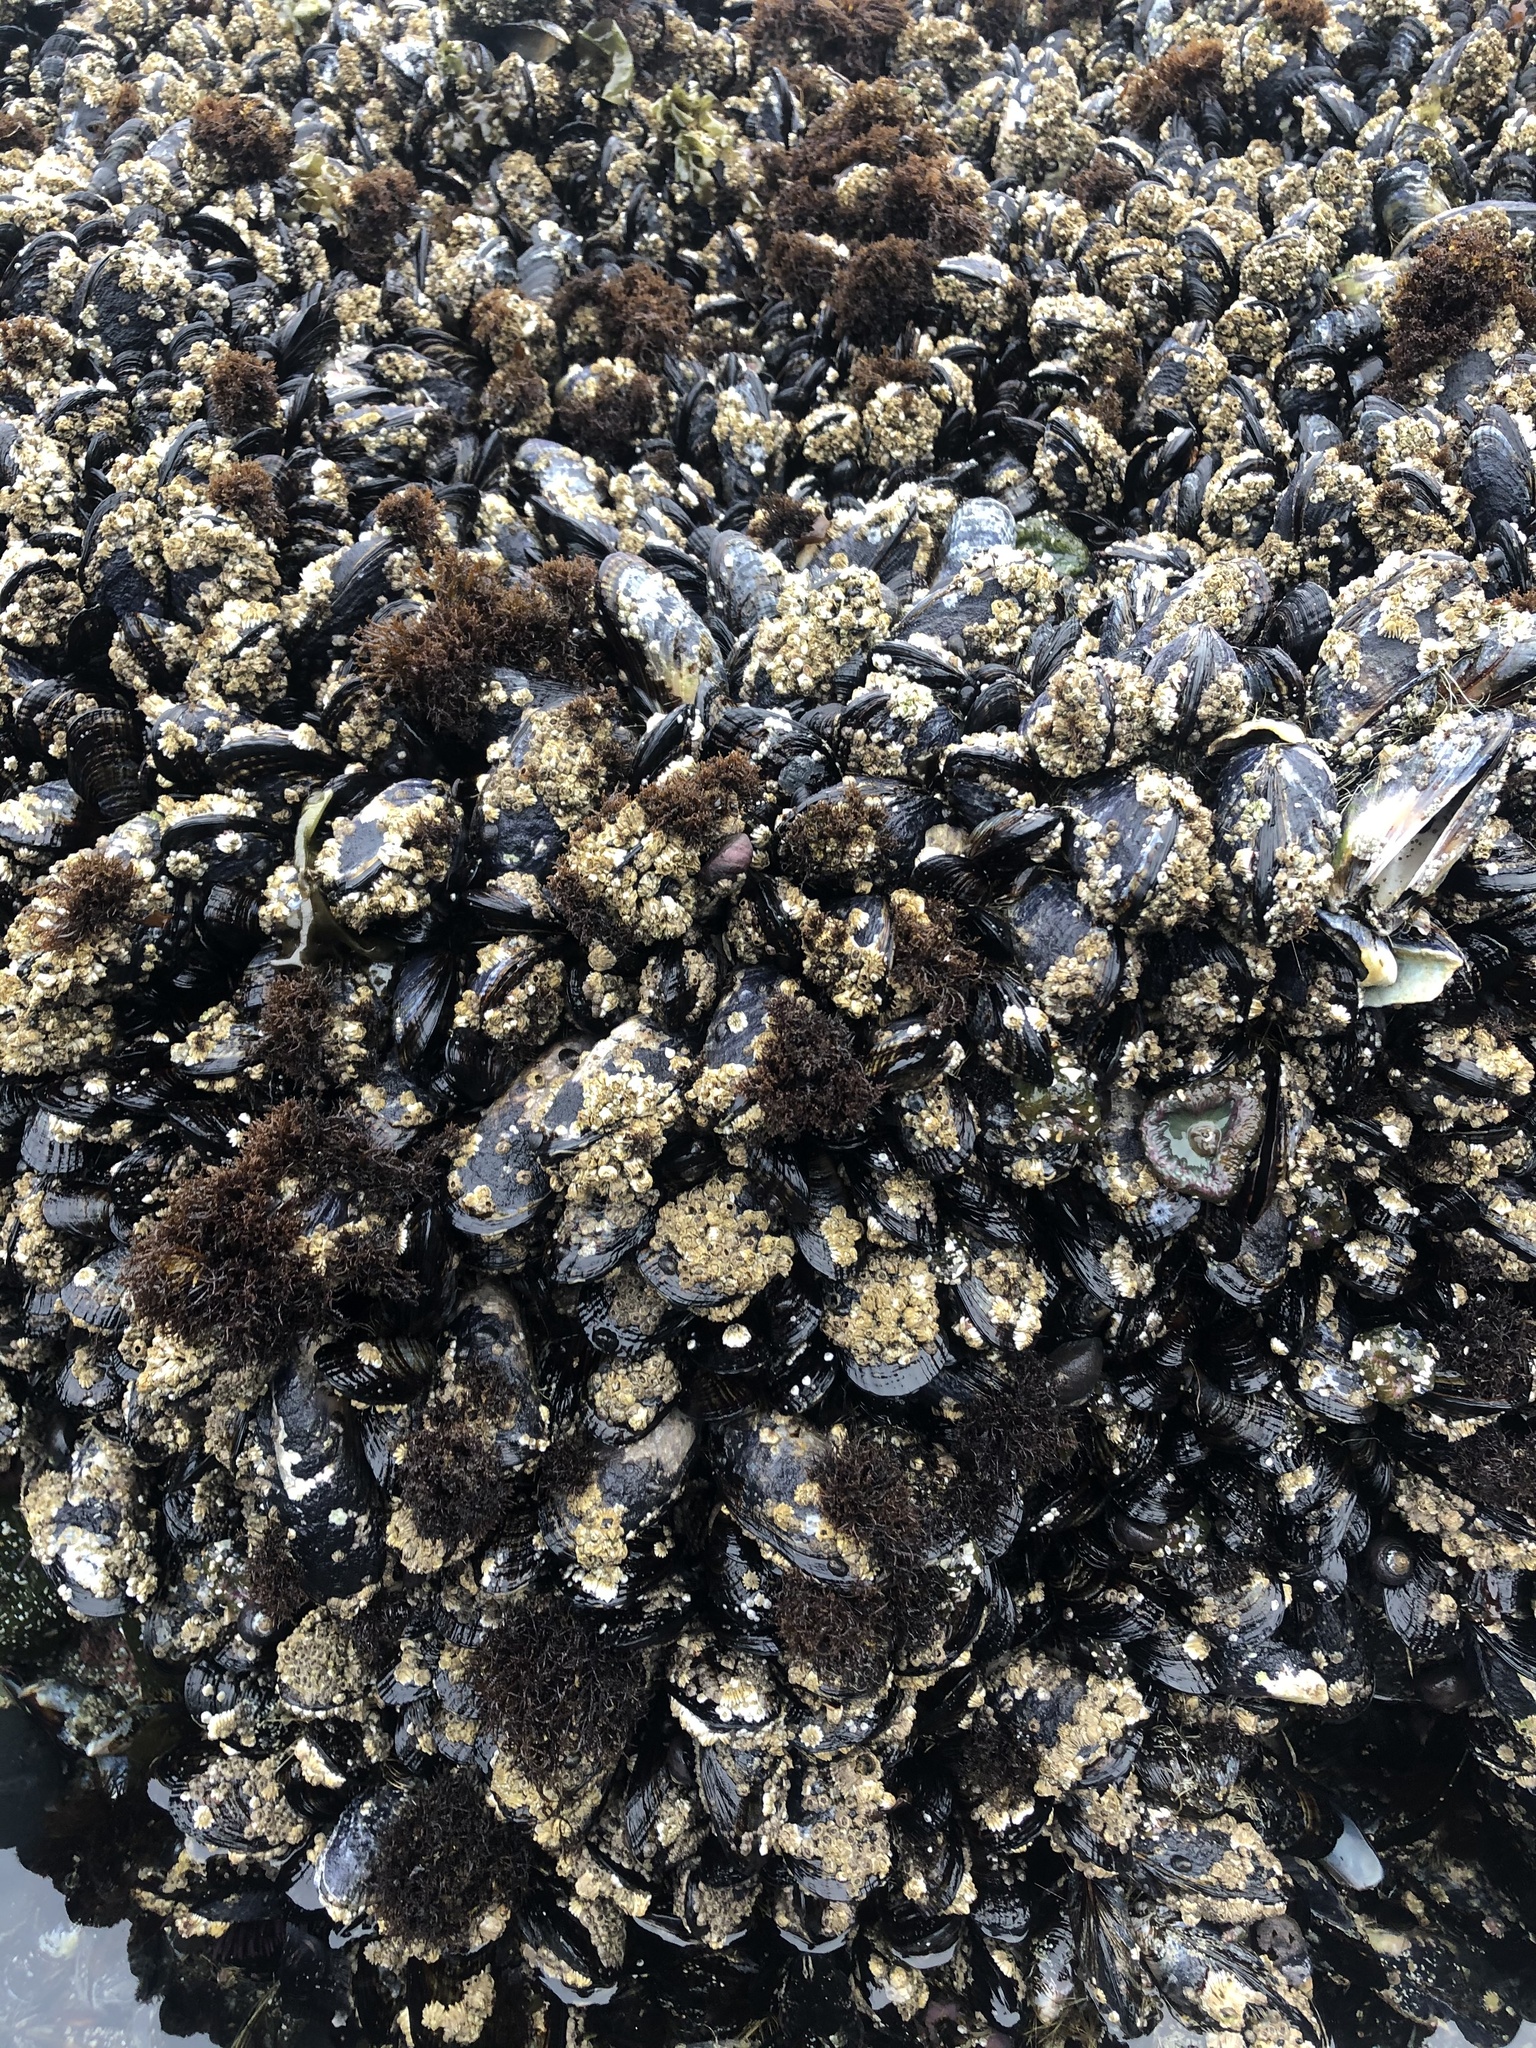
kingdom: Animalia
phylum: Mollusca
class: Bivalvia
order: Mytilida
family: Mytilidae
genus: Mytilus
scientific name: Mytilus californianus
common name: California mussel
